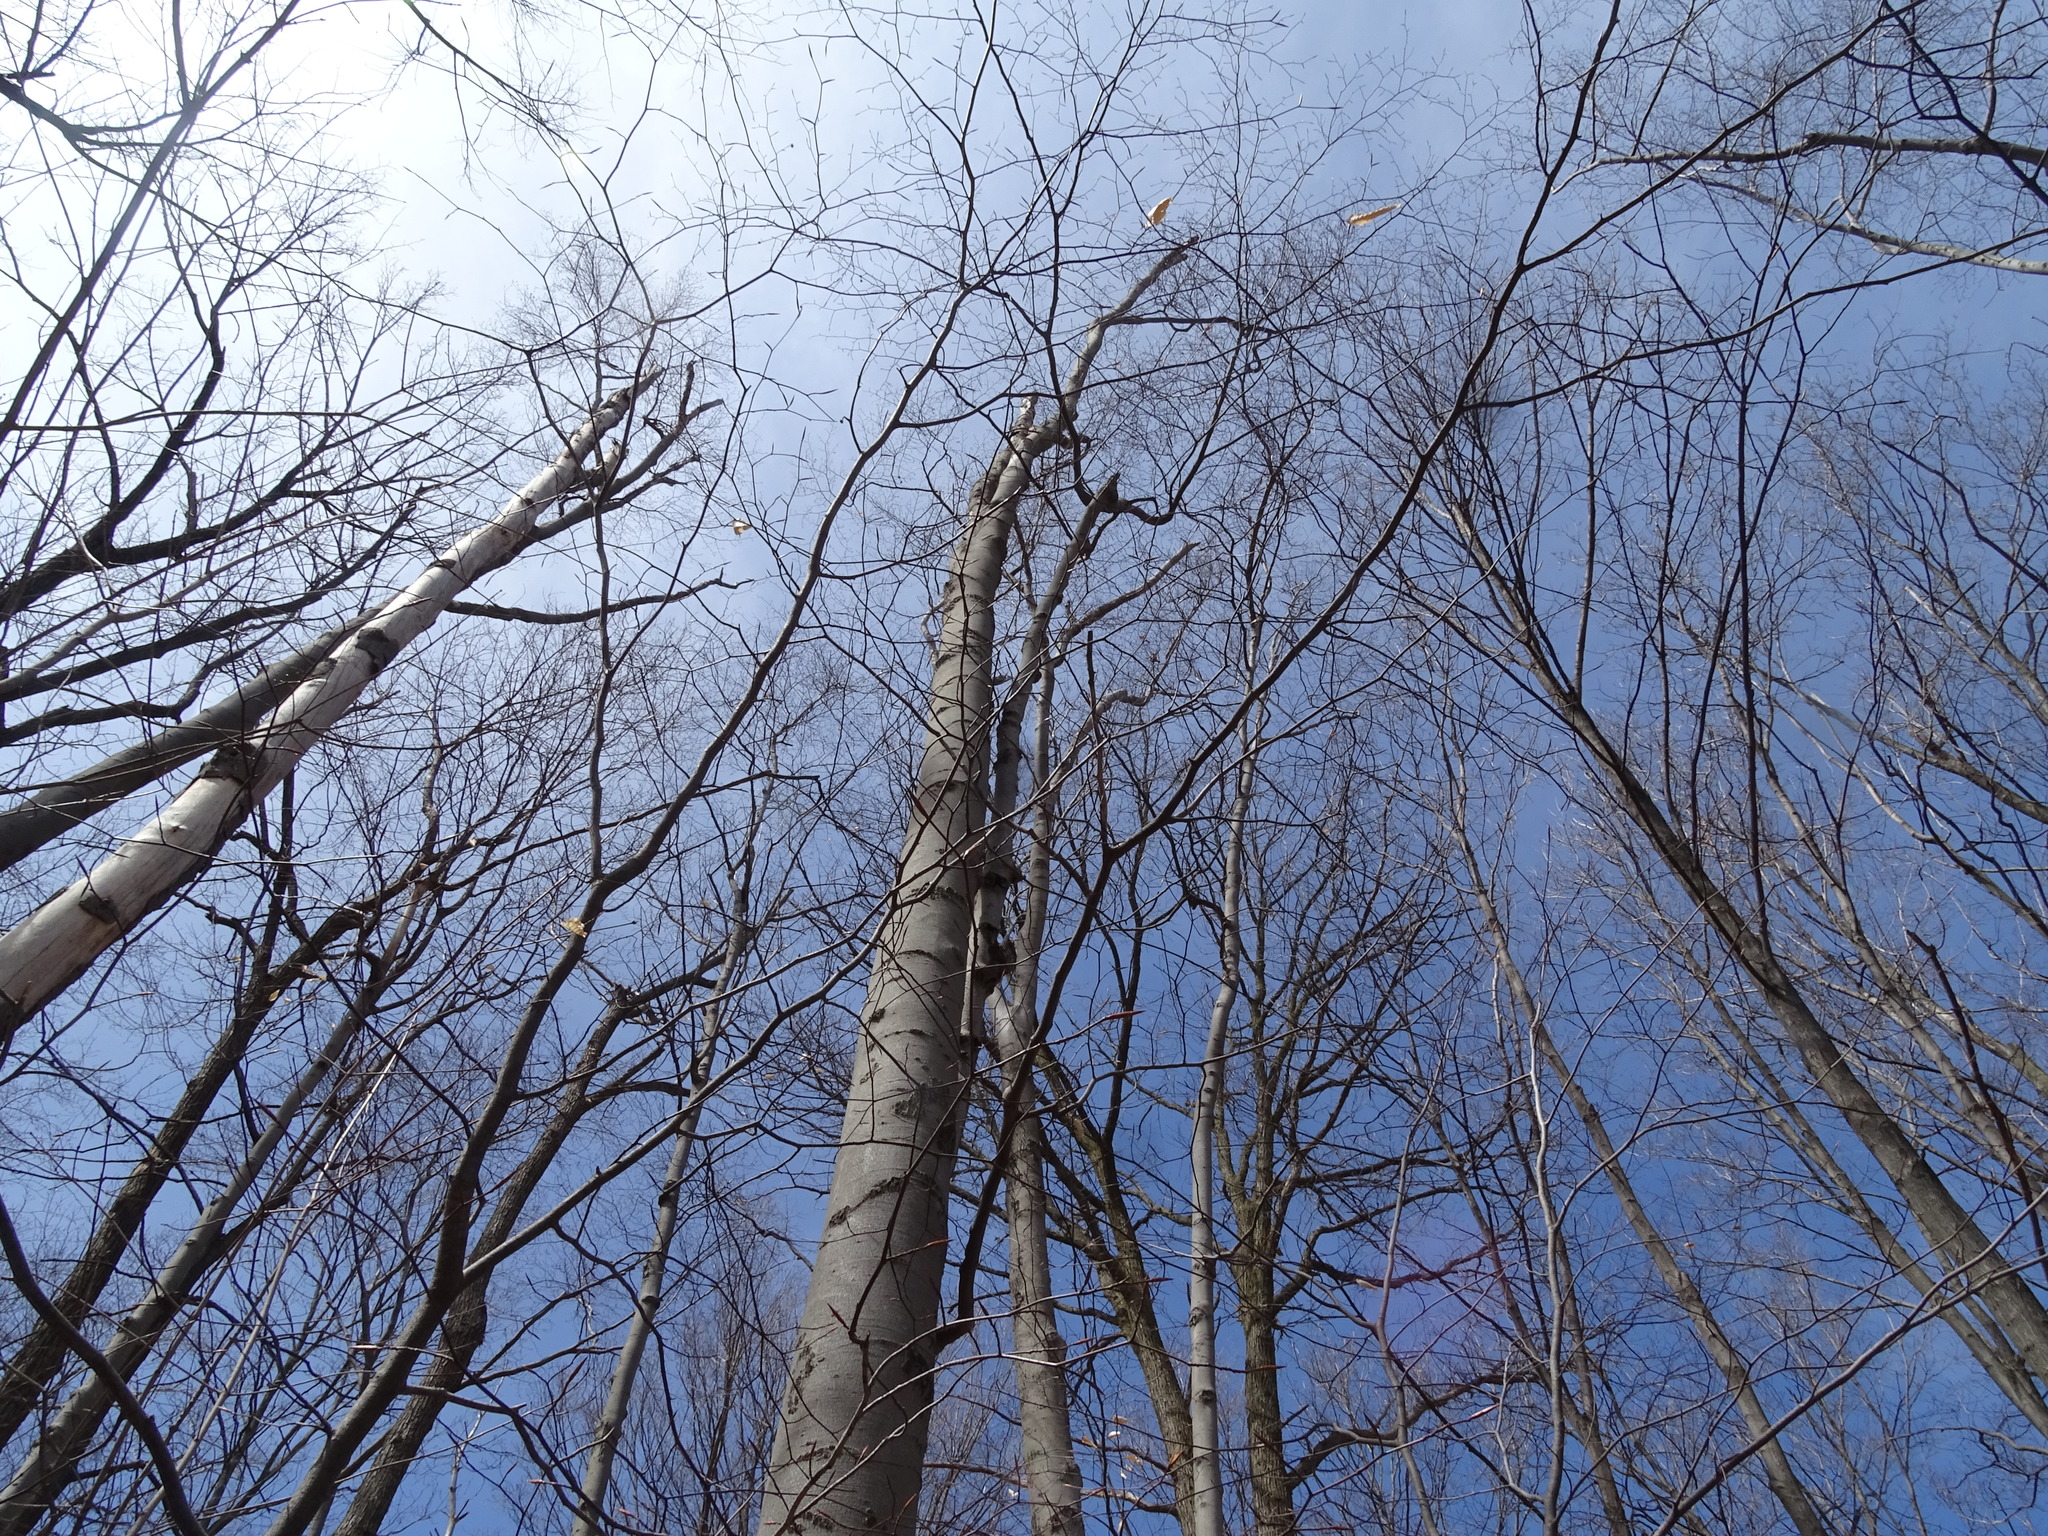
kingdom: Plantae
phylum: Tracheophyta
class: Magnoliopsida
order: Fagales
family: Fagaceae
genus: Fagus
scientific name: Fagus grandifolia
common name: American beech
